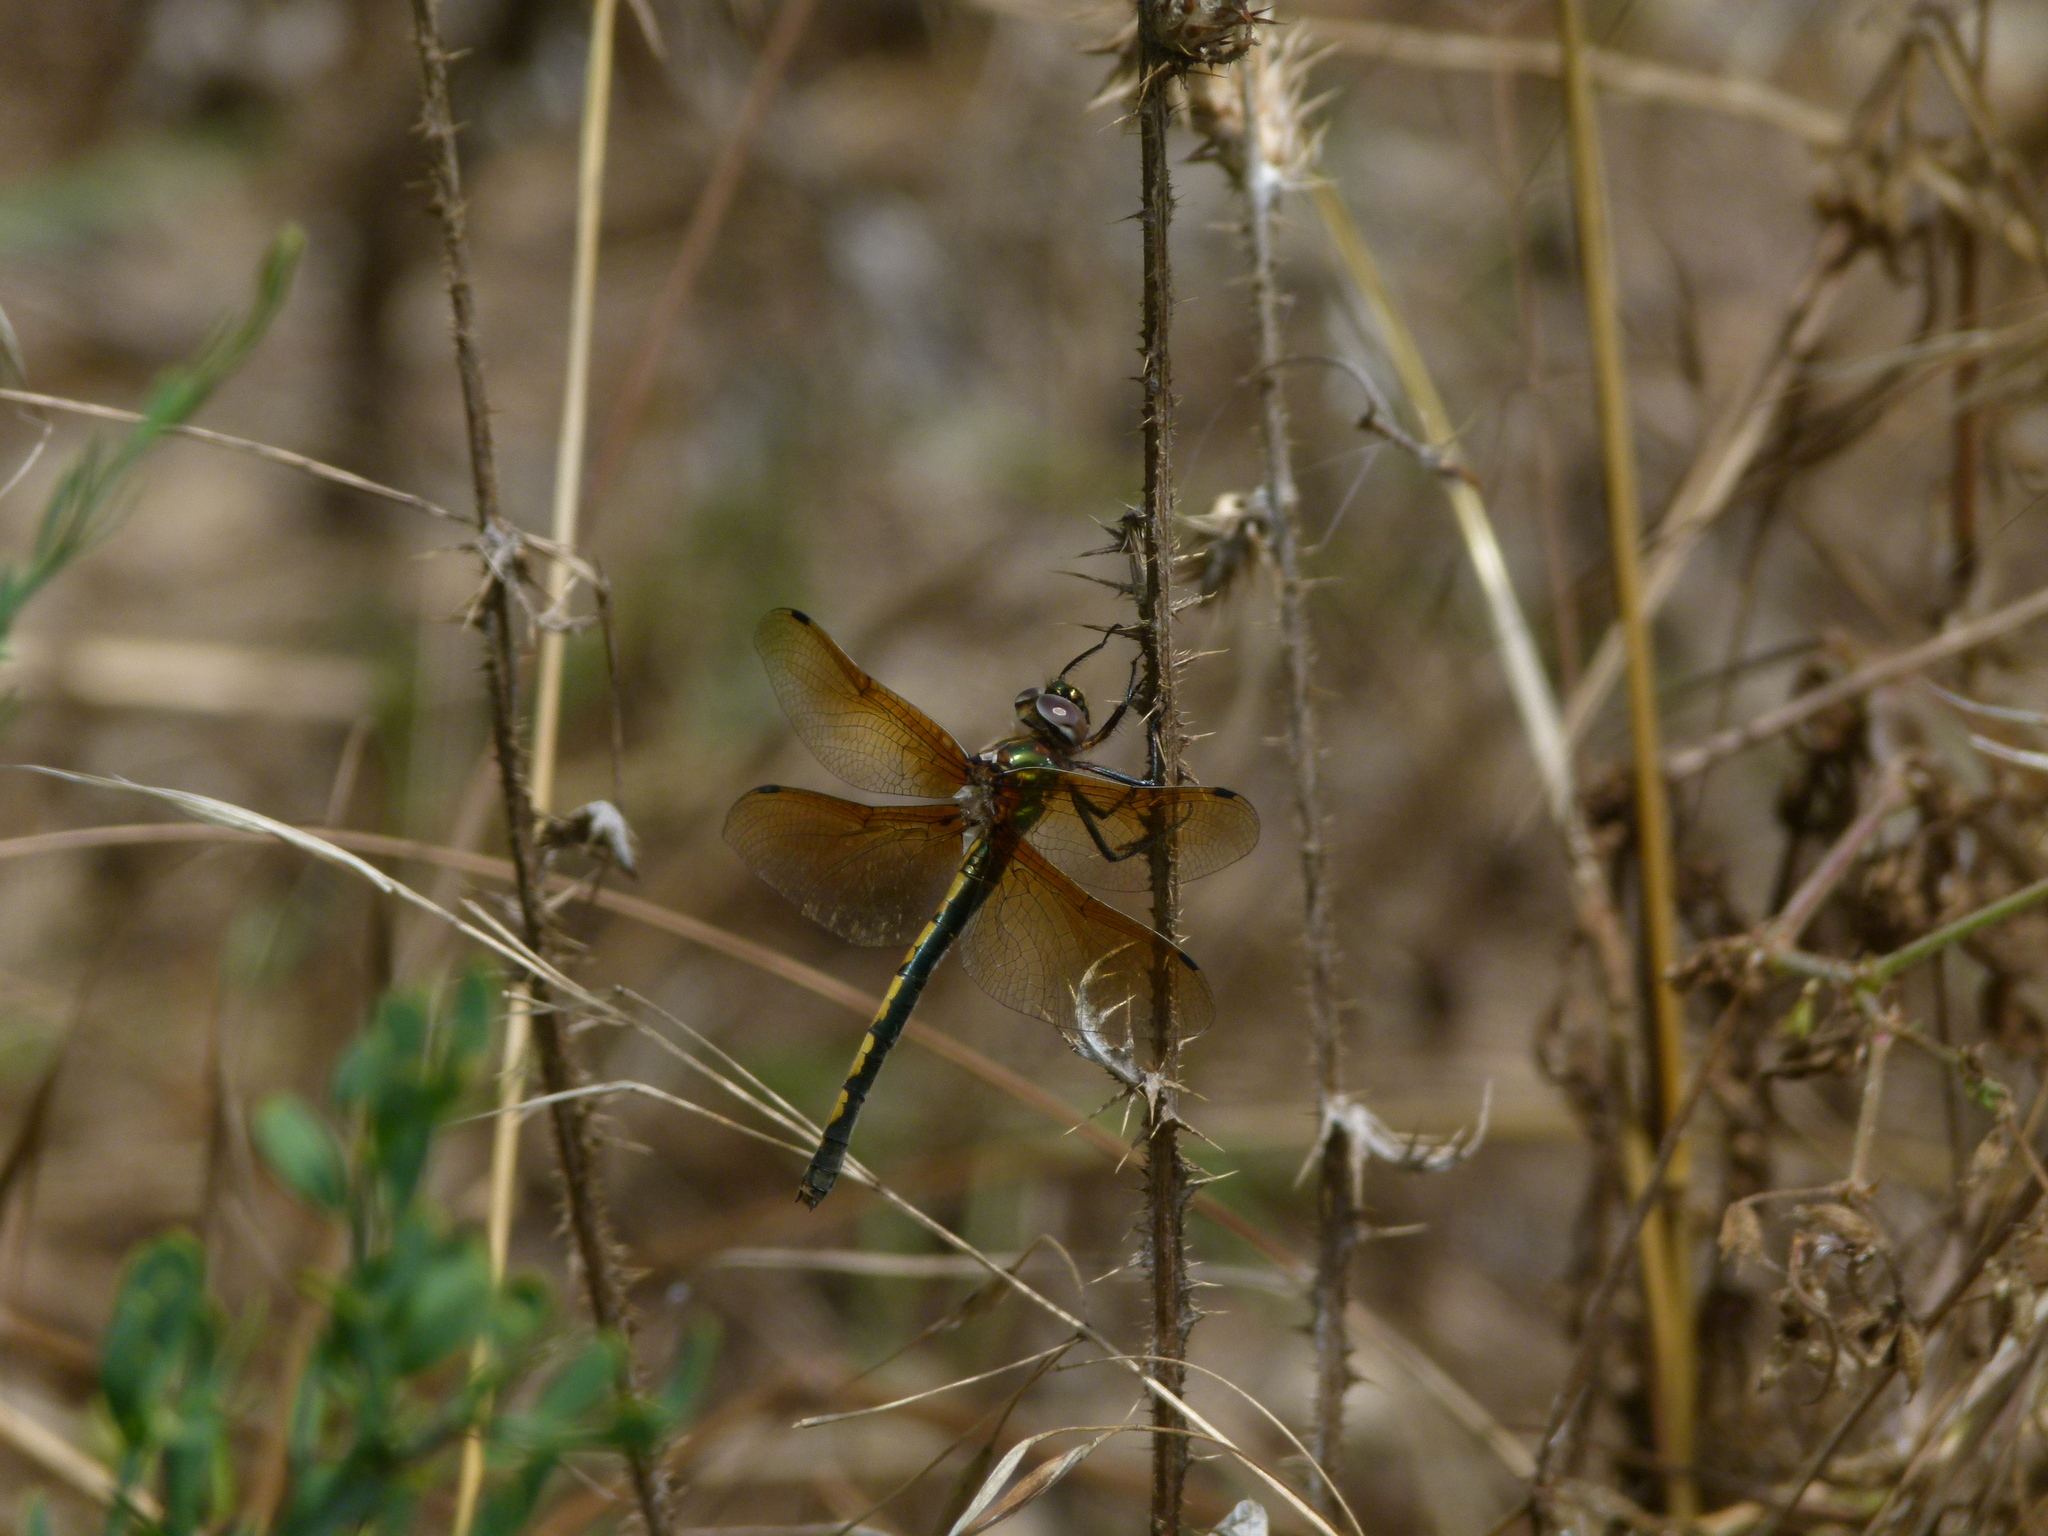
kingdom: Animalia
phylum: Arthropoda
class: Insecta
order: Odonata
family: Corduliidae
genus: Oxygastra
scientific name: Oxygastra curtisii
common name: Orange-spotted emerald
